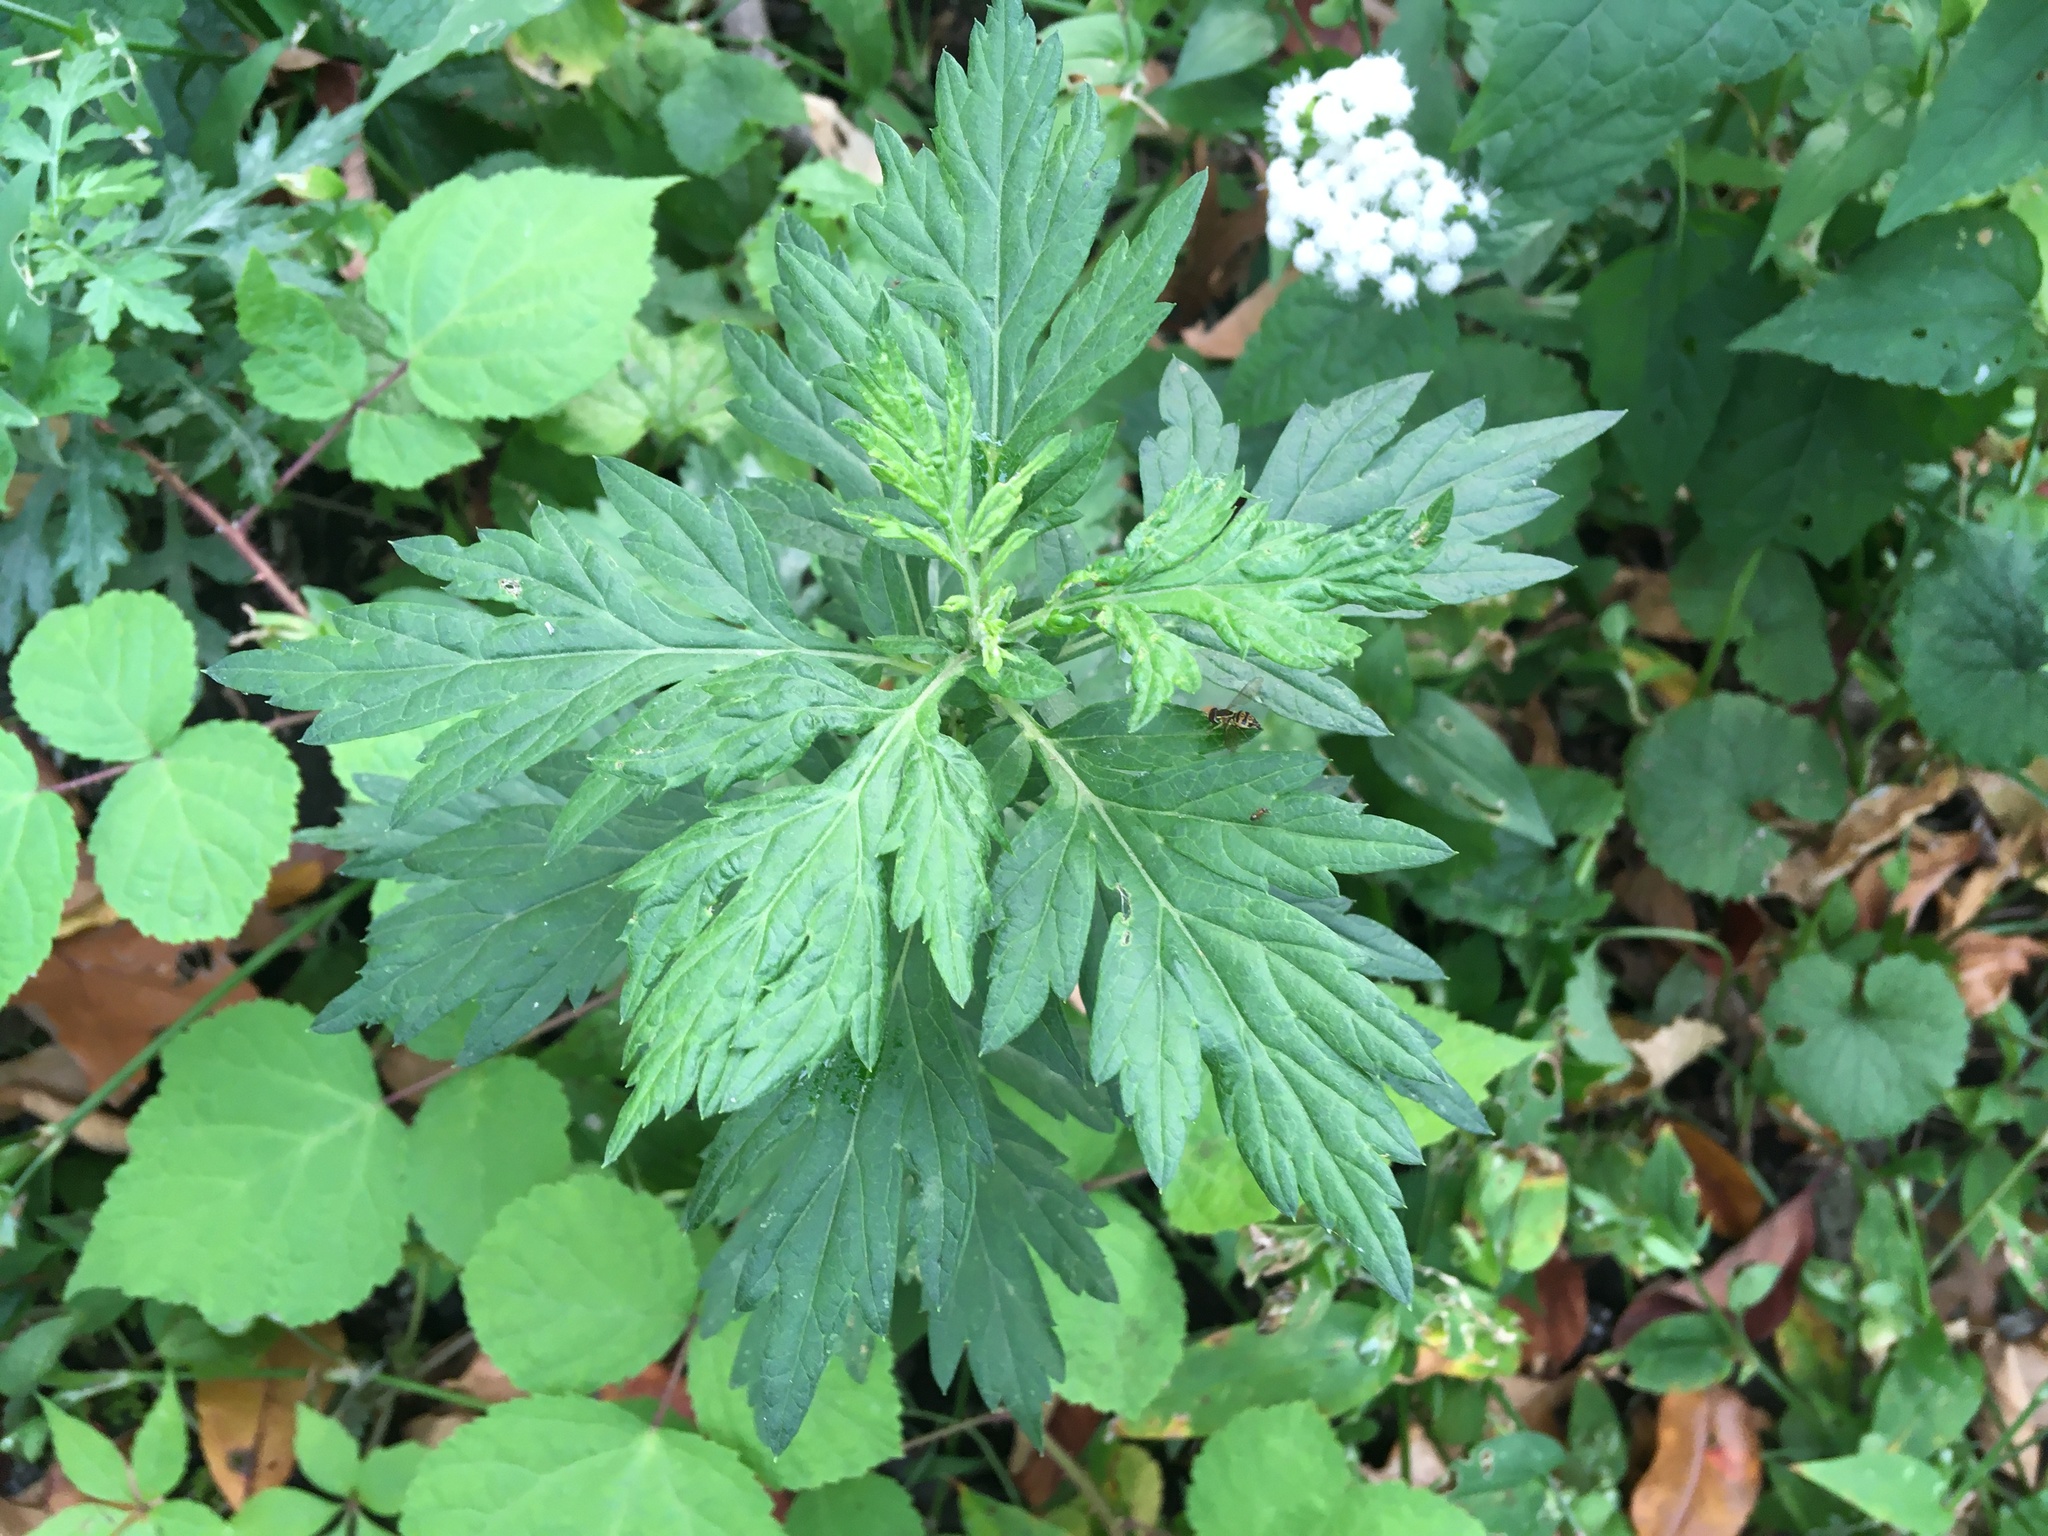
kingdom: Plantae
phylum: Tracheophyta
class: Magnoliopsida
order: Asterales
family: Asteraceae
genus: Artemisia
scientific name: Artemisia vulgaris
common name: Mugwort
